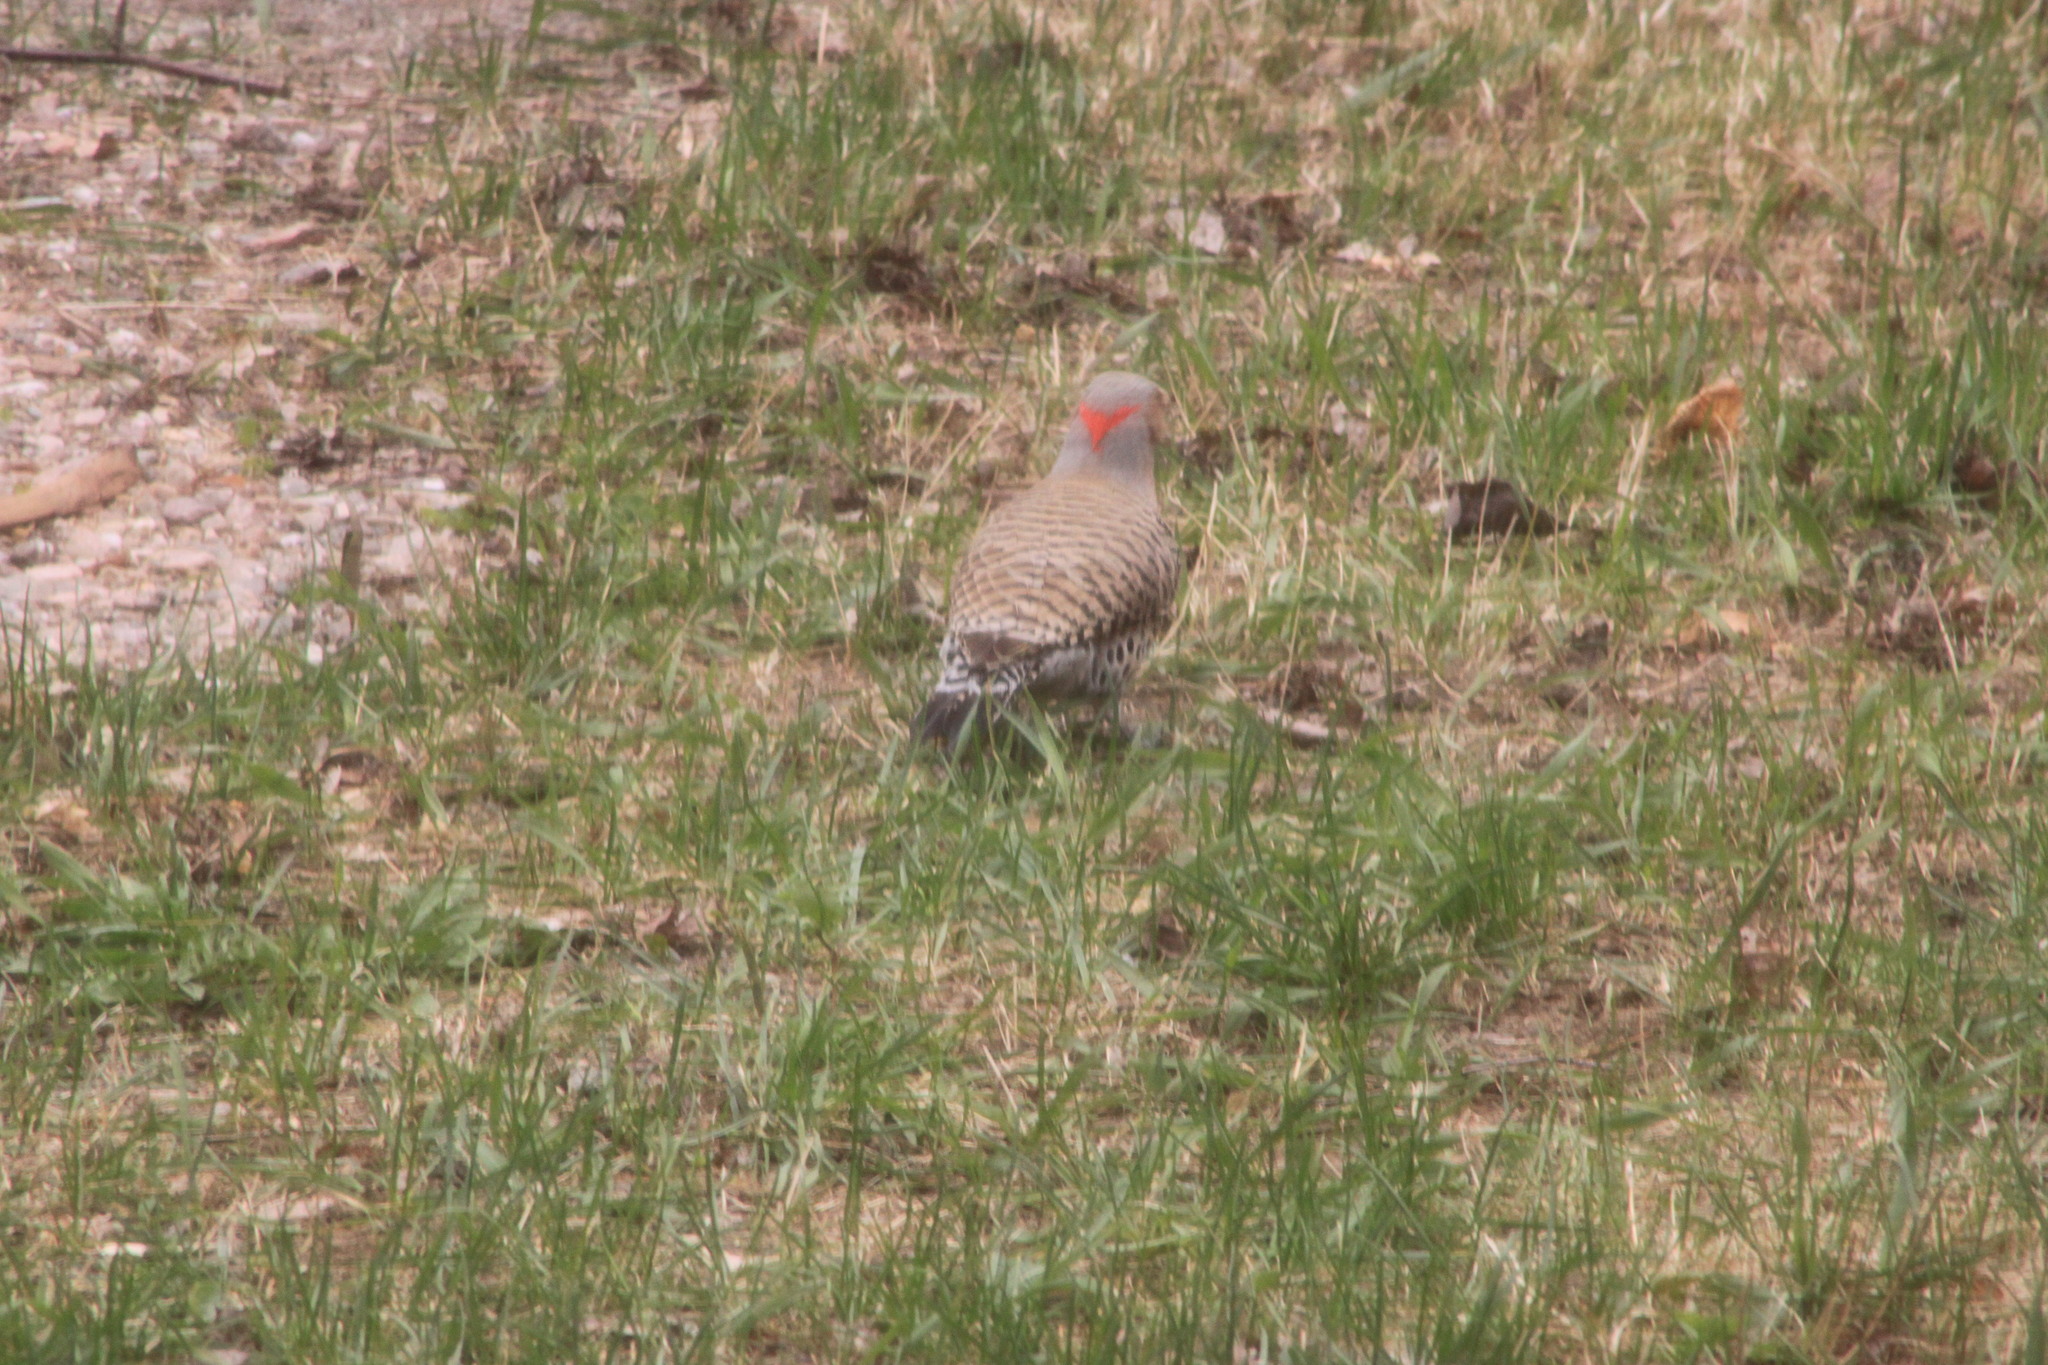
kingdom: Animalia
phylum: Chordata
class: Aves
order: Piciformes
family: Picidae
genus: Colaptes
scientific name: Colaptes auratus
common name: Northern flicker
